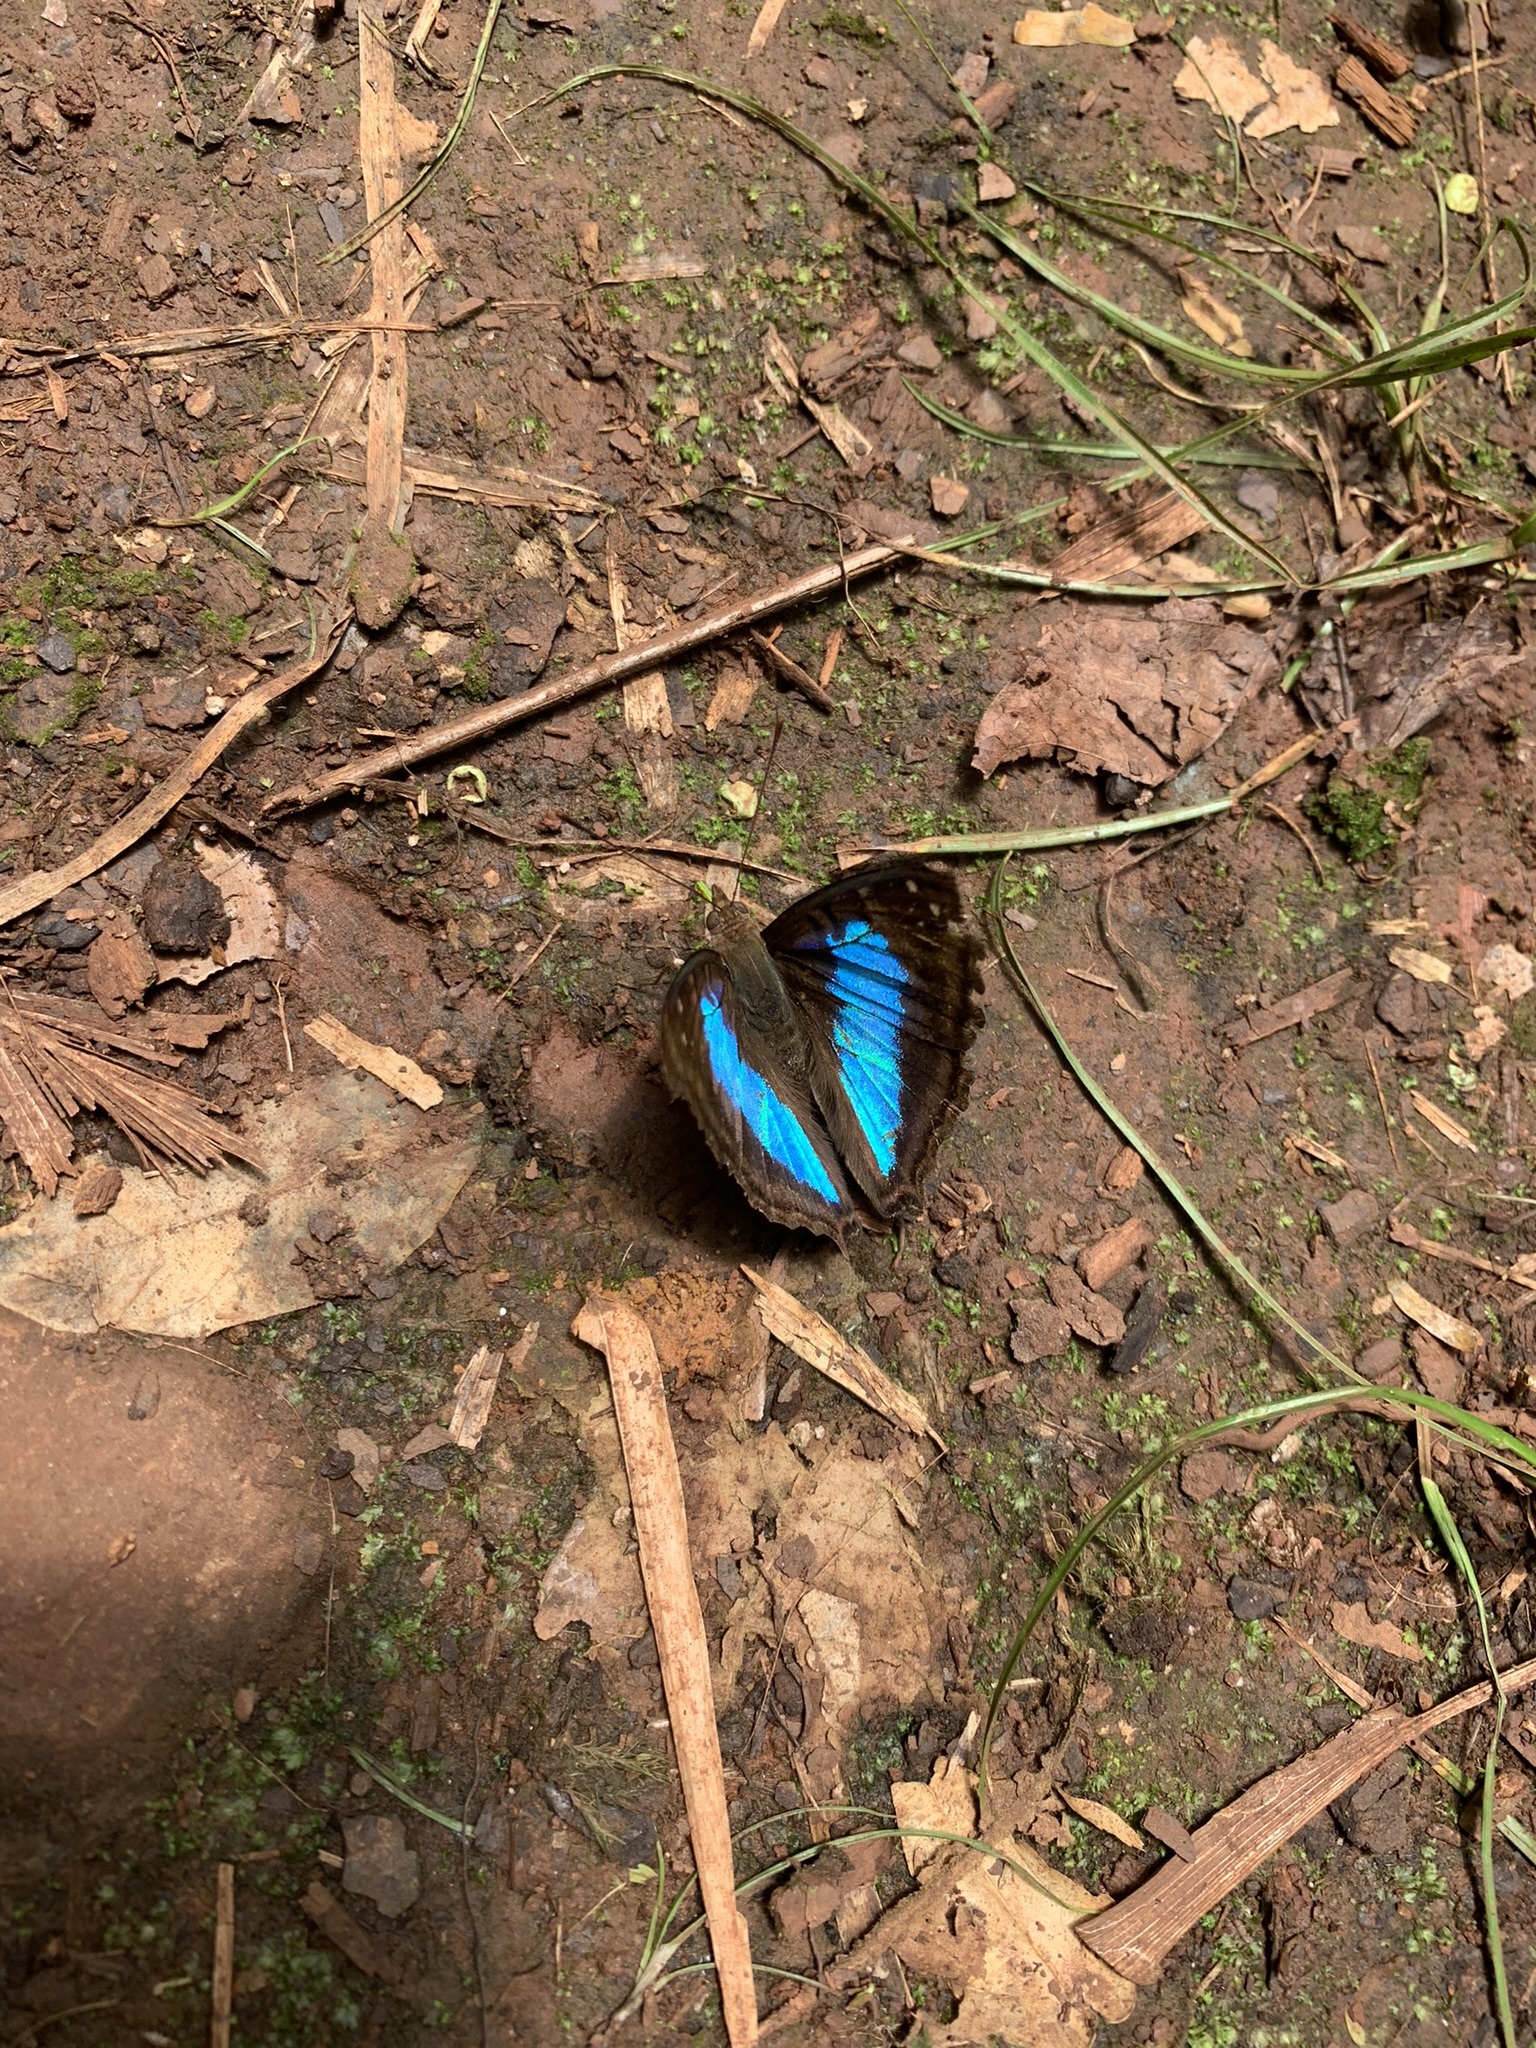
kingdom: Animalia
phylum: Arthropoda
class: Insecta
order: Lepidoptera
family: Nymphalidae
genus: Doxocopa
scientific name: Doxocopa laurentia
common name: Turquoise emperor
